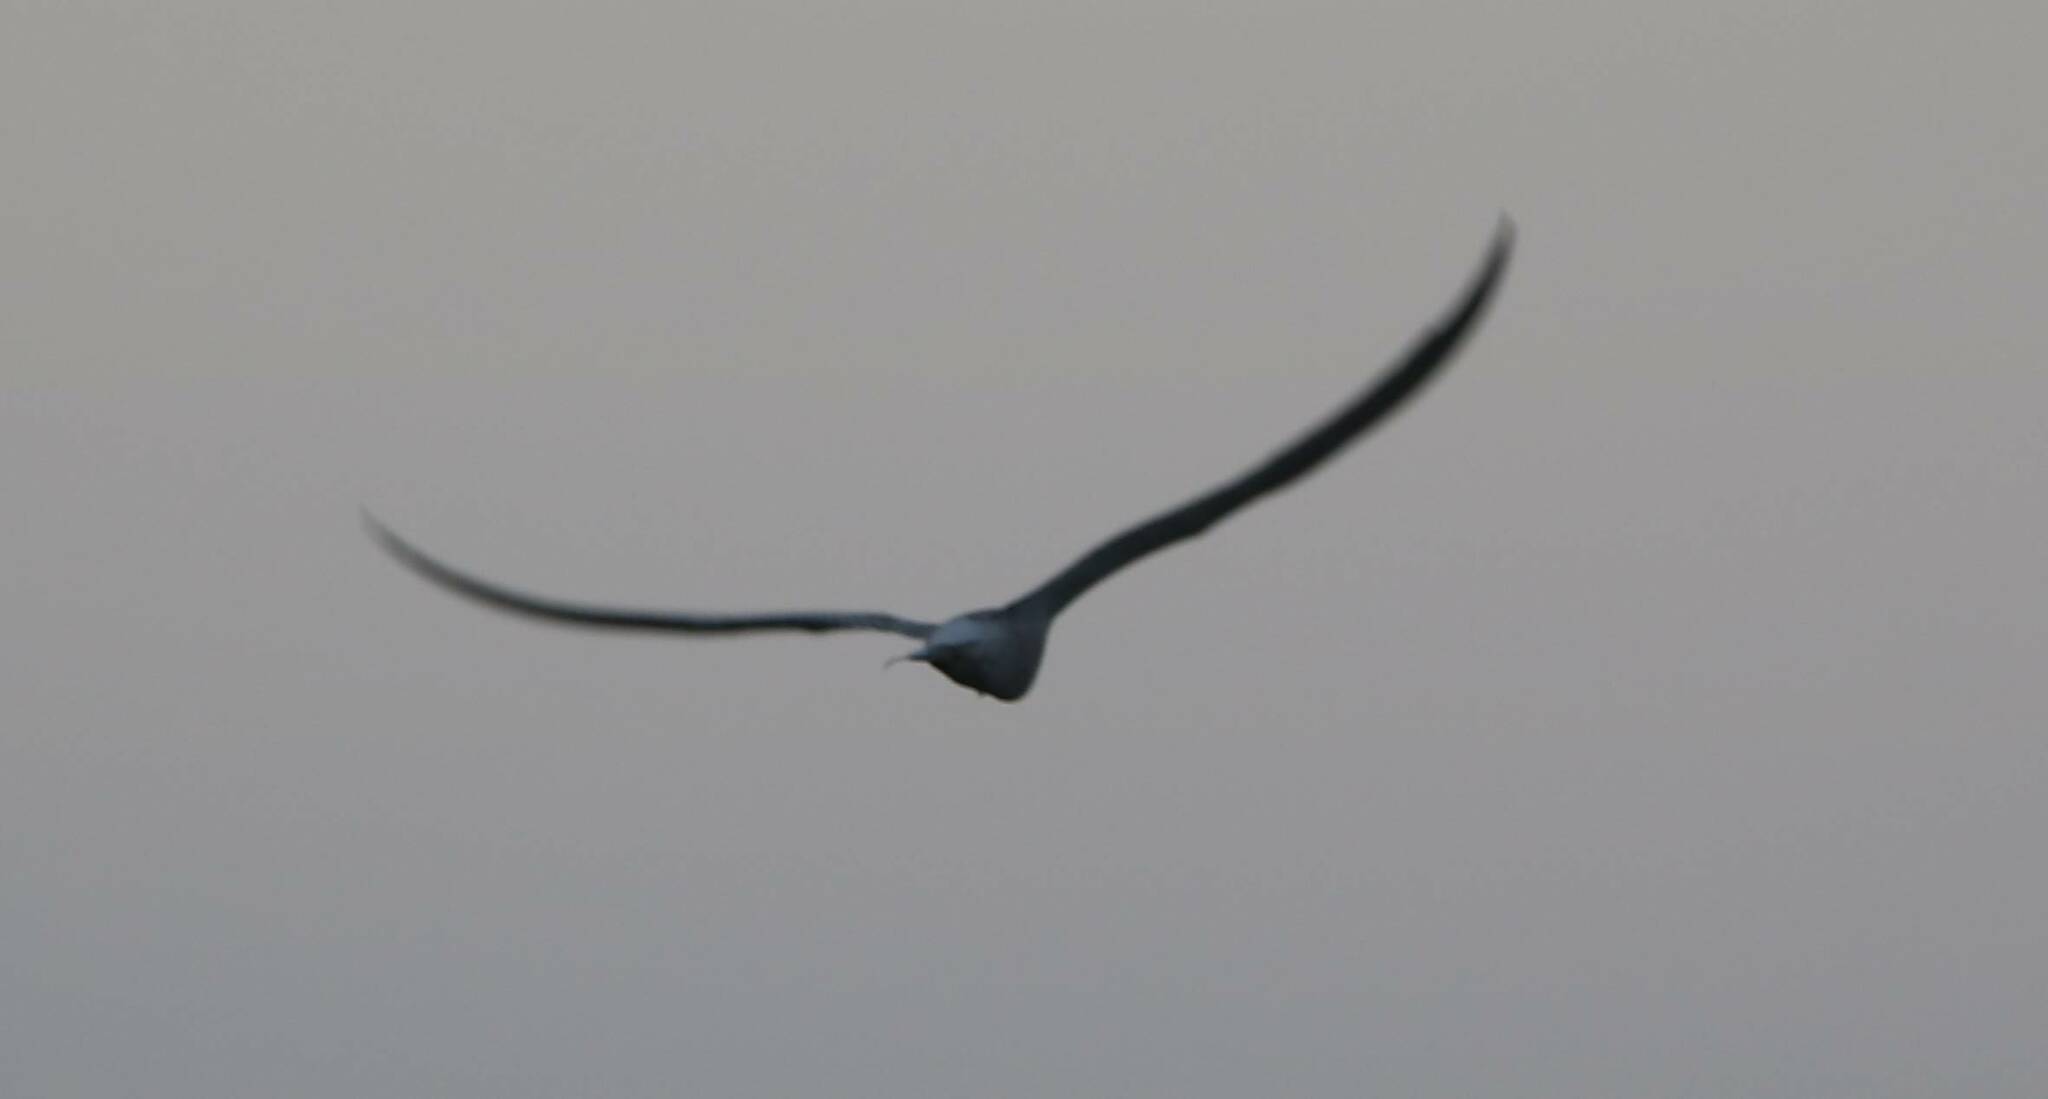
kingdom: Animalia
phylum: Chordata
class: Aves
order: Charadriiformes
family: Laridae
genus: Sterna
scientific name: Sterna hirundo
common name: Common tern
